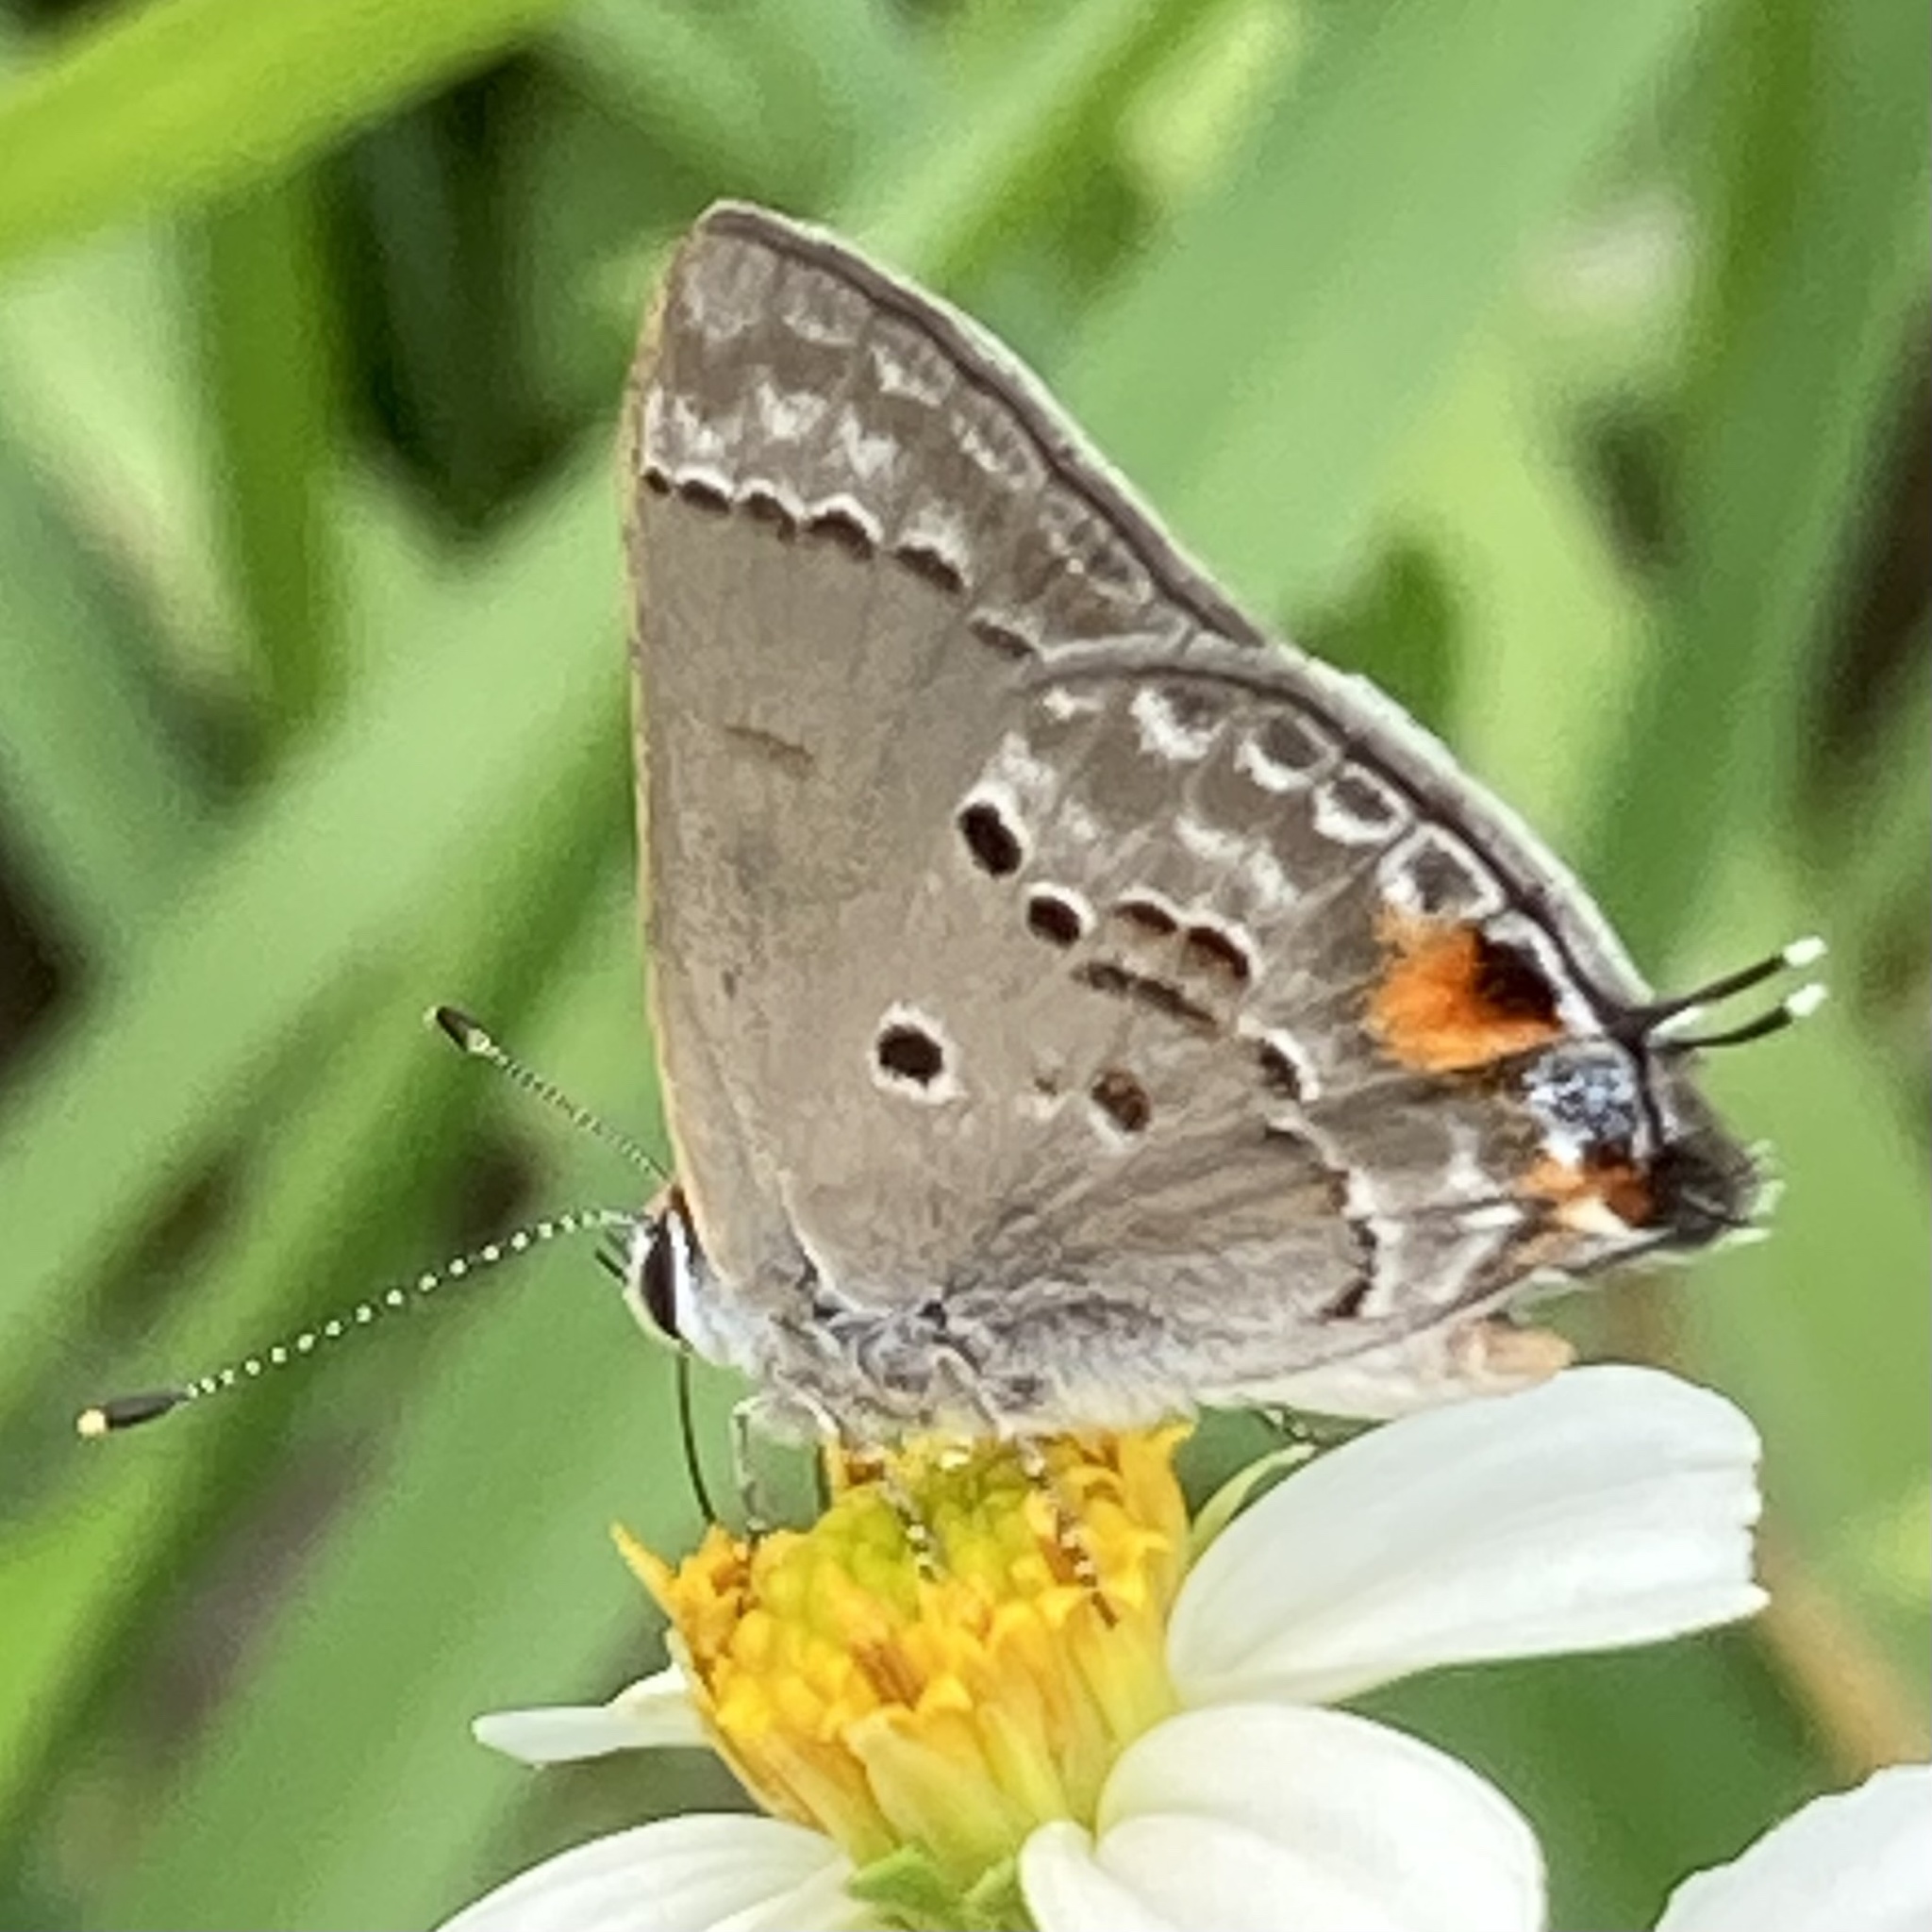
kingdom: Animalia
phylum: Arthropoda
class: Insecta
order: Lepidoptera
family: Lycaenidae
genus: Callicista
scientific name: Callicista columella
